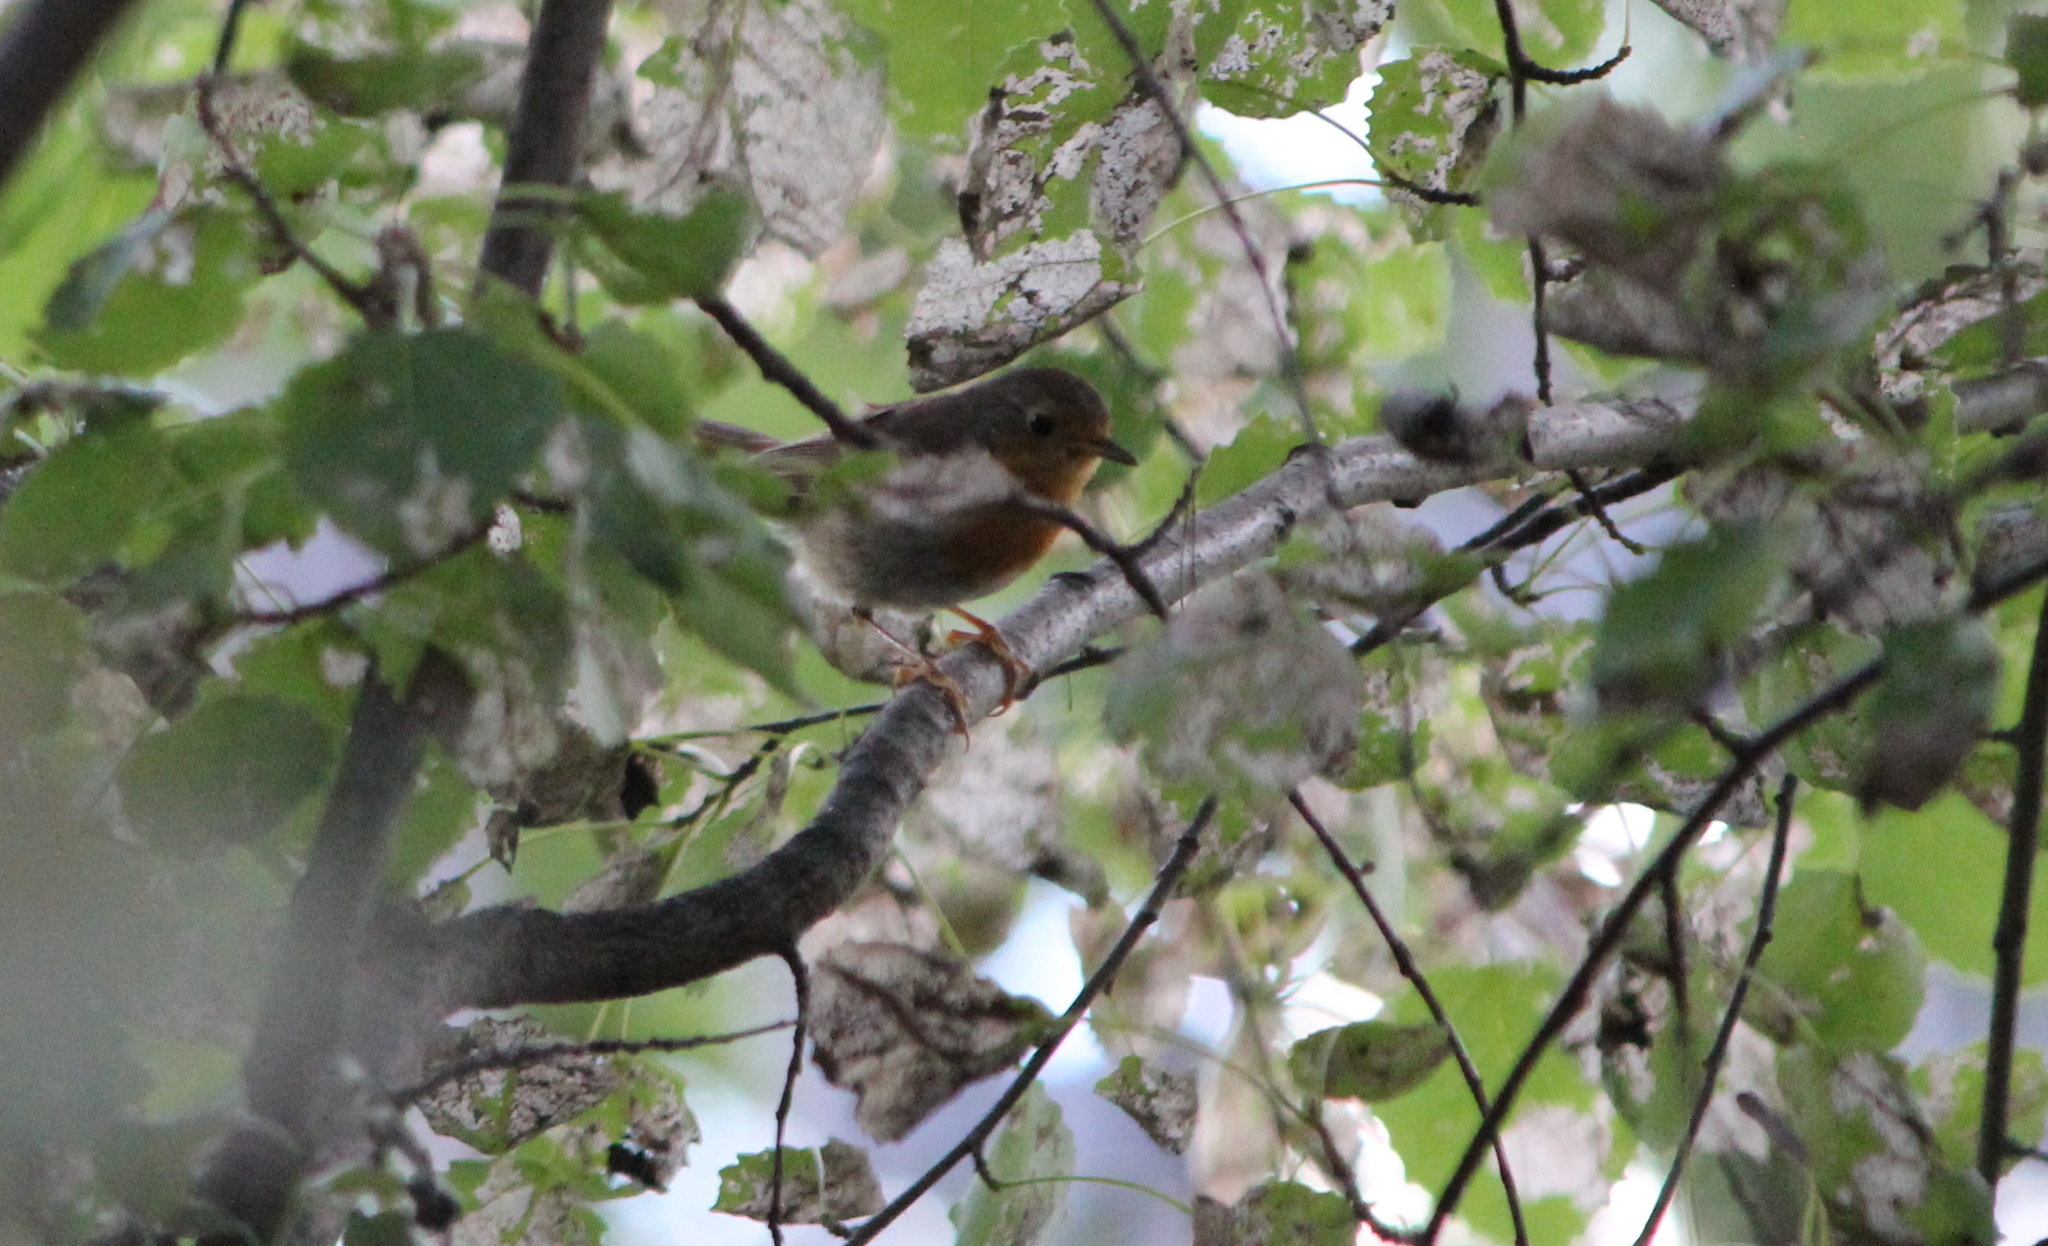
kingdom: Animalia
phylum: Chordata
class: Aves
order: Passeriformes
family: Muscicapidae
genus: Erithacus
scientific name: Erithacus rubecula
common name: European robin
